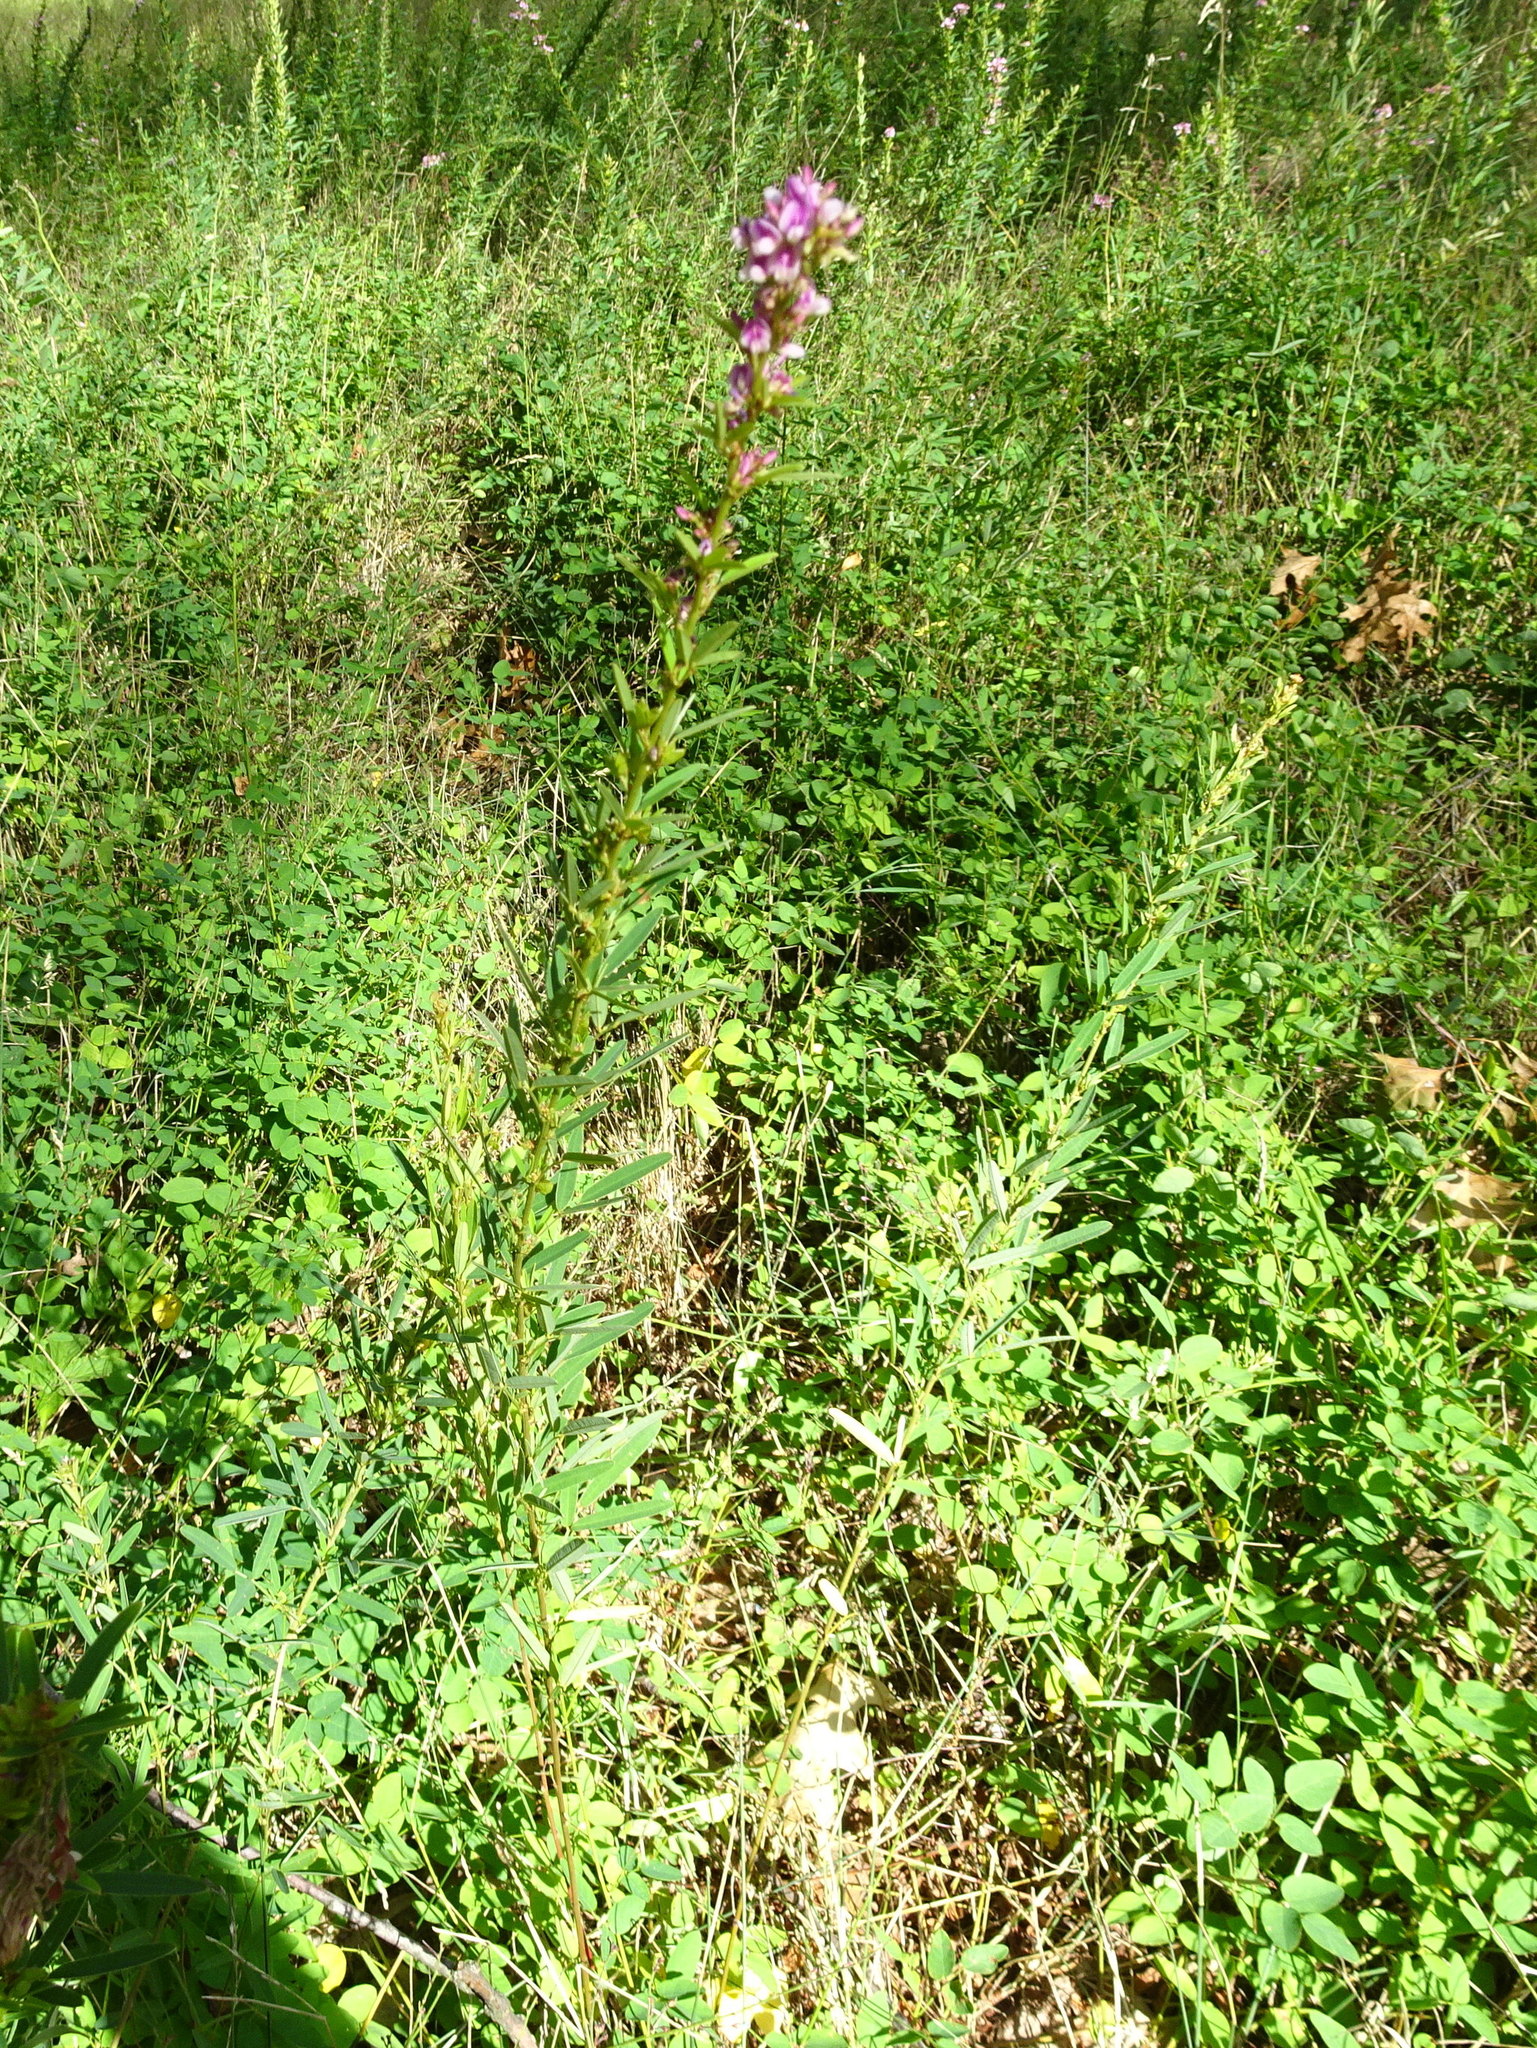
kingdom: Plantae
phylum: Tracheophyta
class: Magnoliopsida
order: Fabales
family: Fabaceae
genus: Lespedeza
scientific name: Lespedeza virginica
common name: Slender bush-clover
